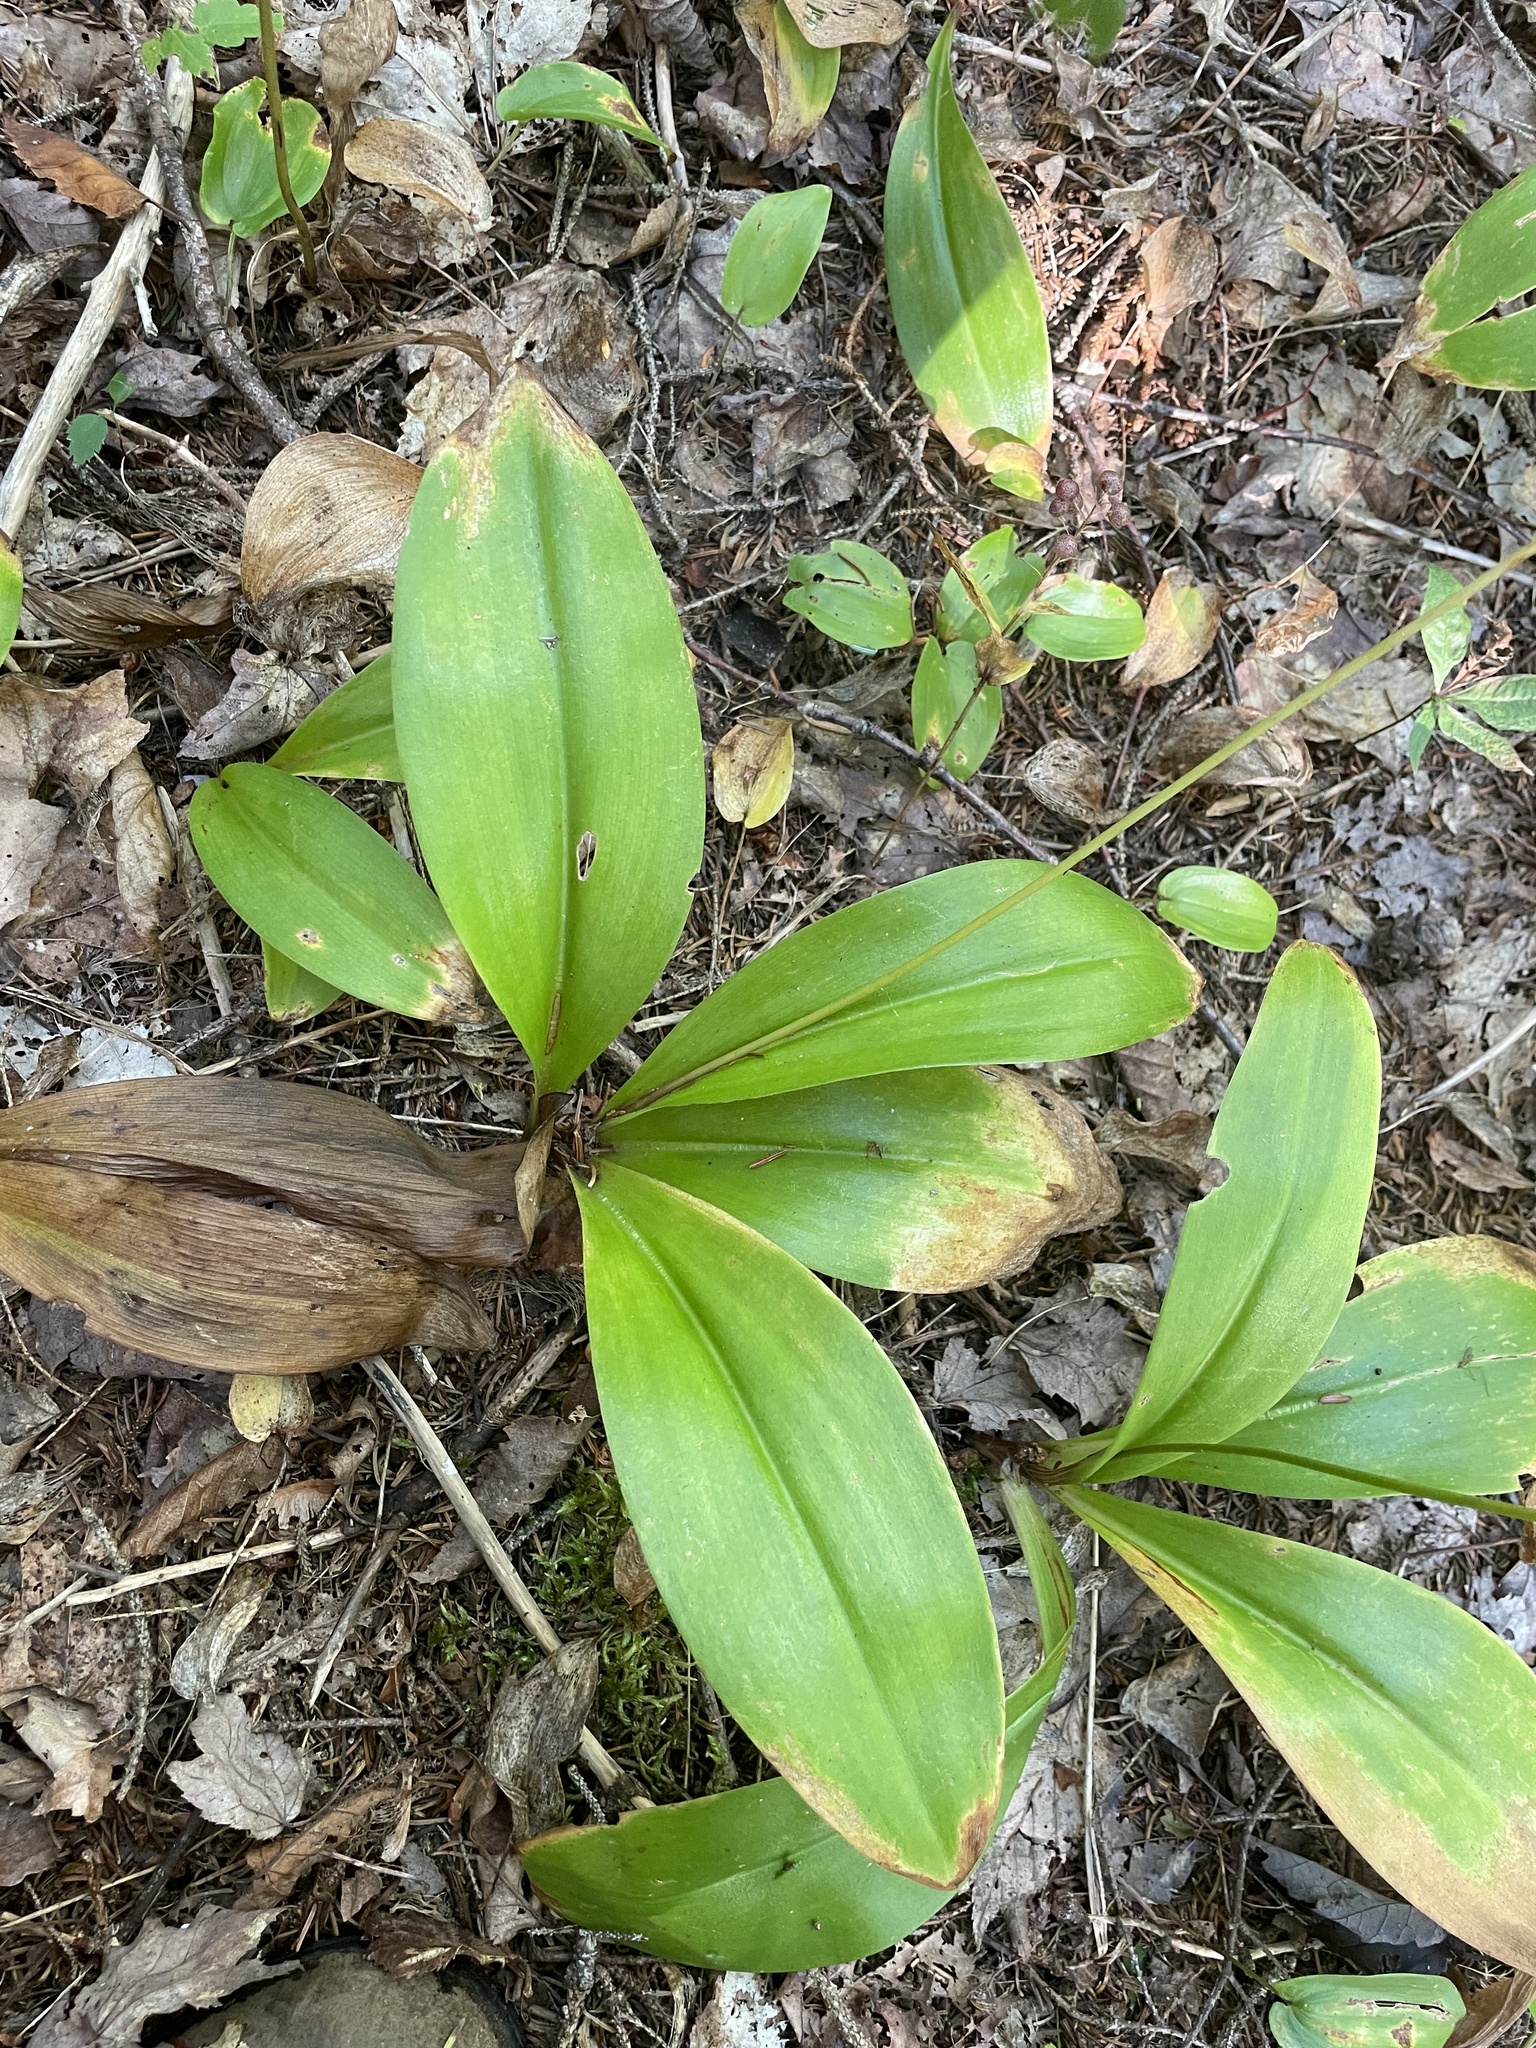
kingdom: Plantae
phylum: Tracheophyta
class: Liliopsida
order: Liliales
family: Liliaceae
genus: Clintonia
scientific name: Clintonia borealis
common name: Yellow clintonia
